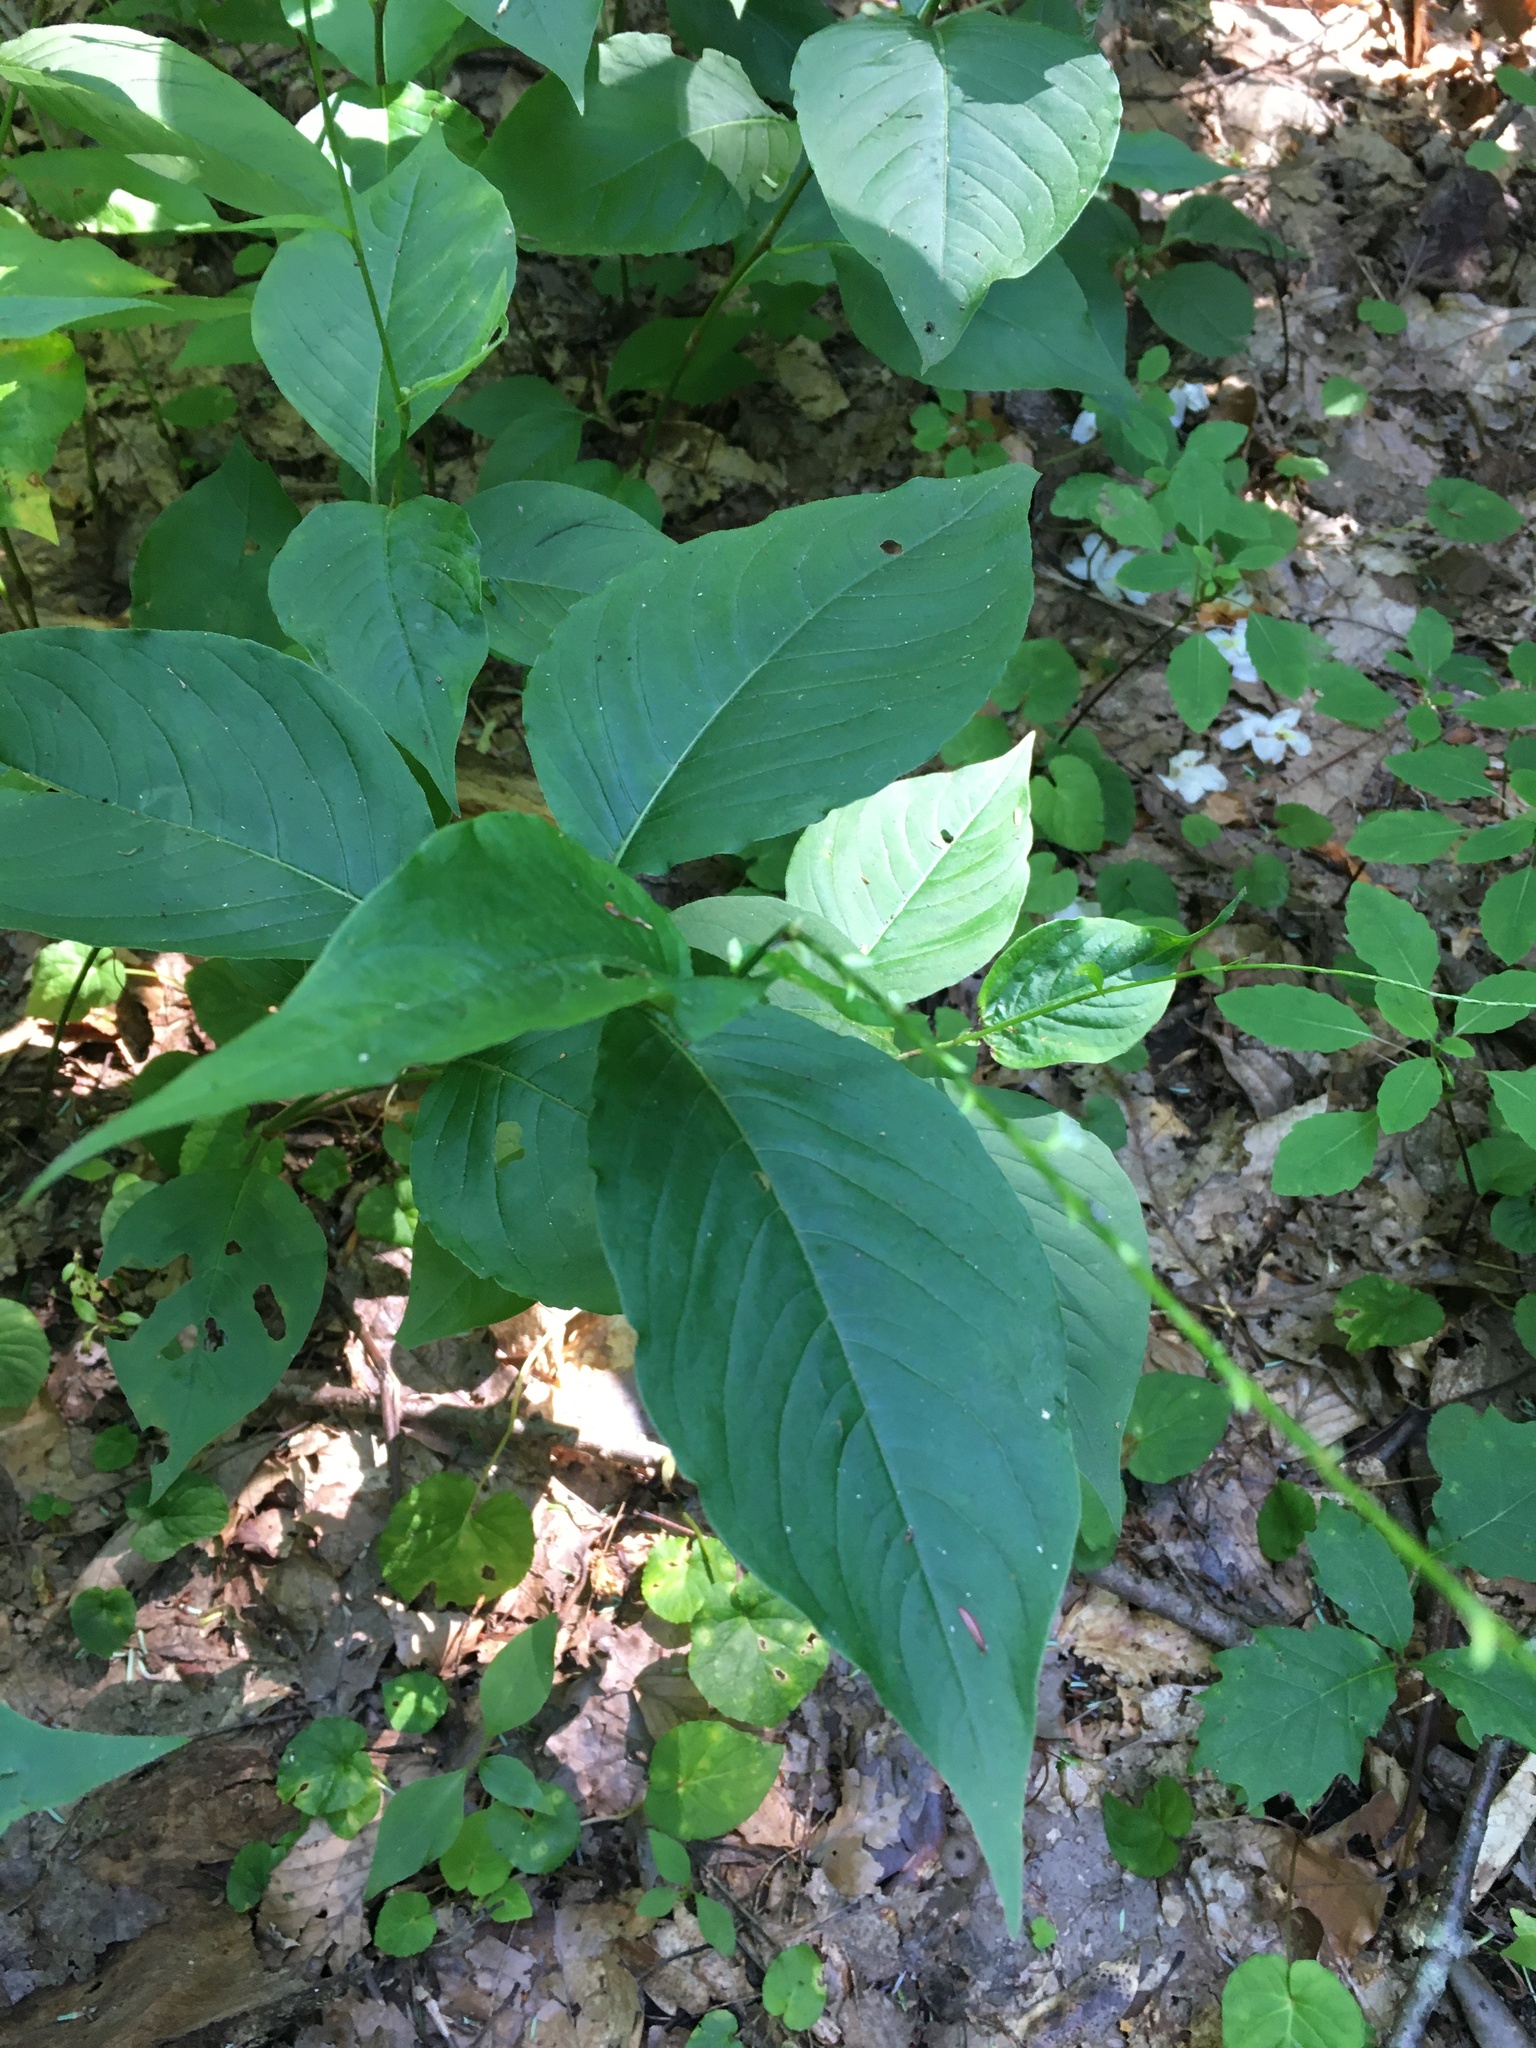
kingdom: Plantae
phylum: Tracheophyta
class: Magnoliopsida
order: Caryophyllales
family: Polygonaceae
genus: Persicaria
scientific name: Persicaria virginiana
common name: Jumpseed
